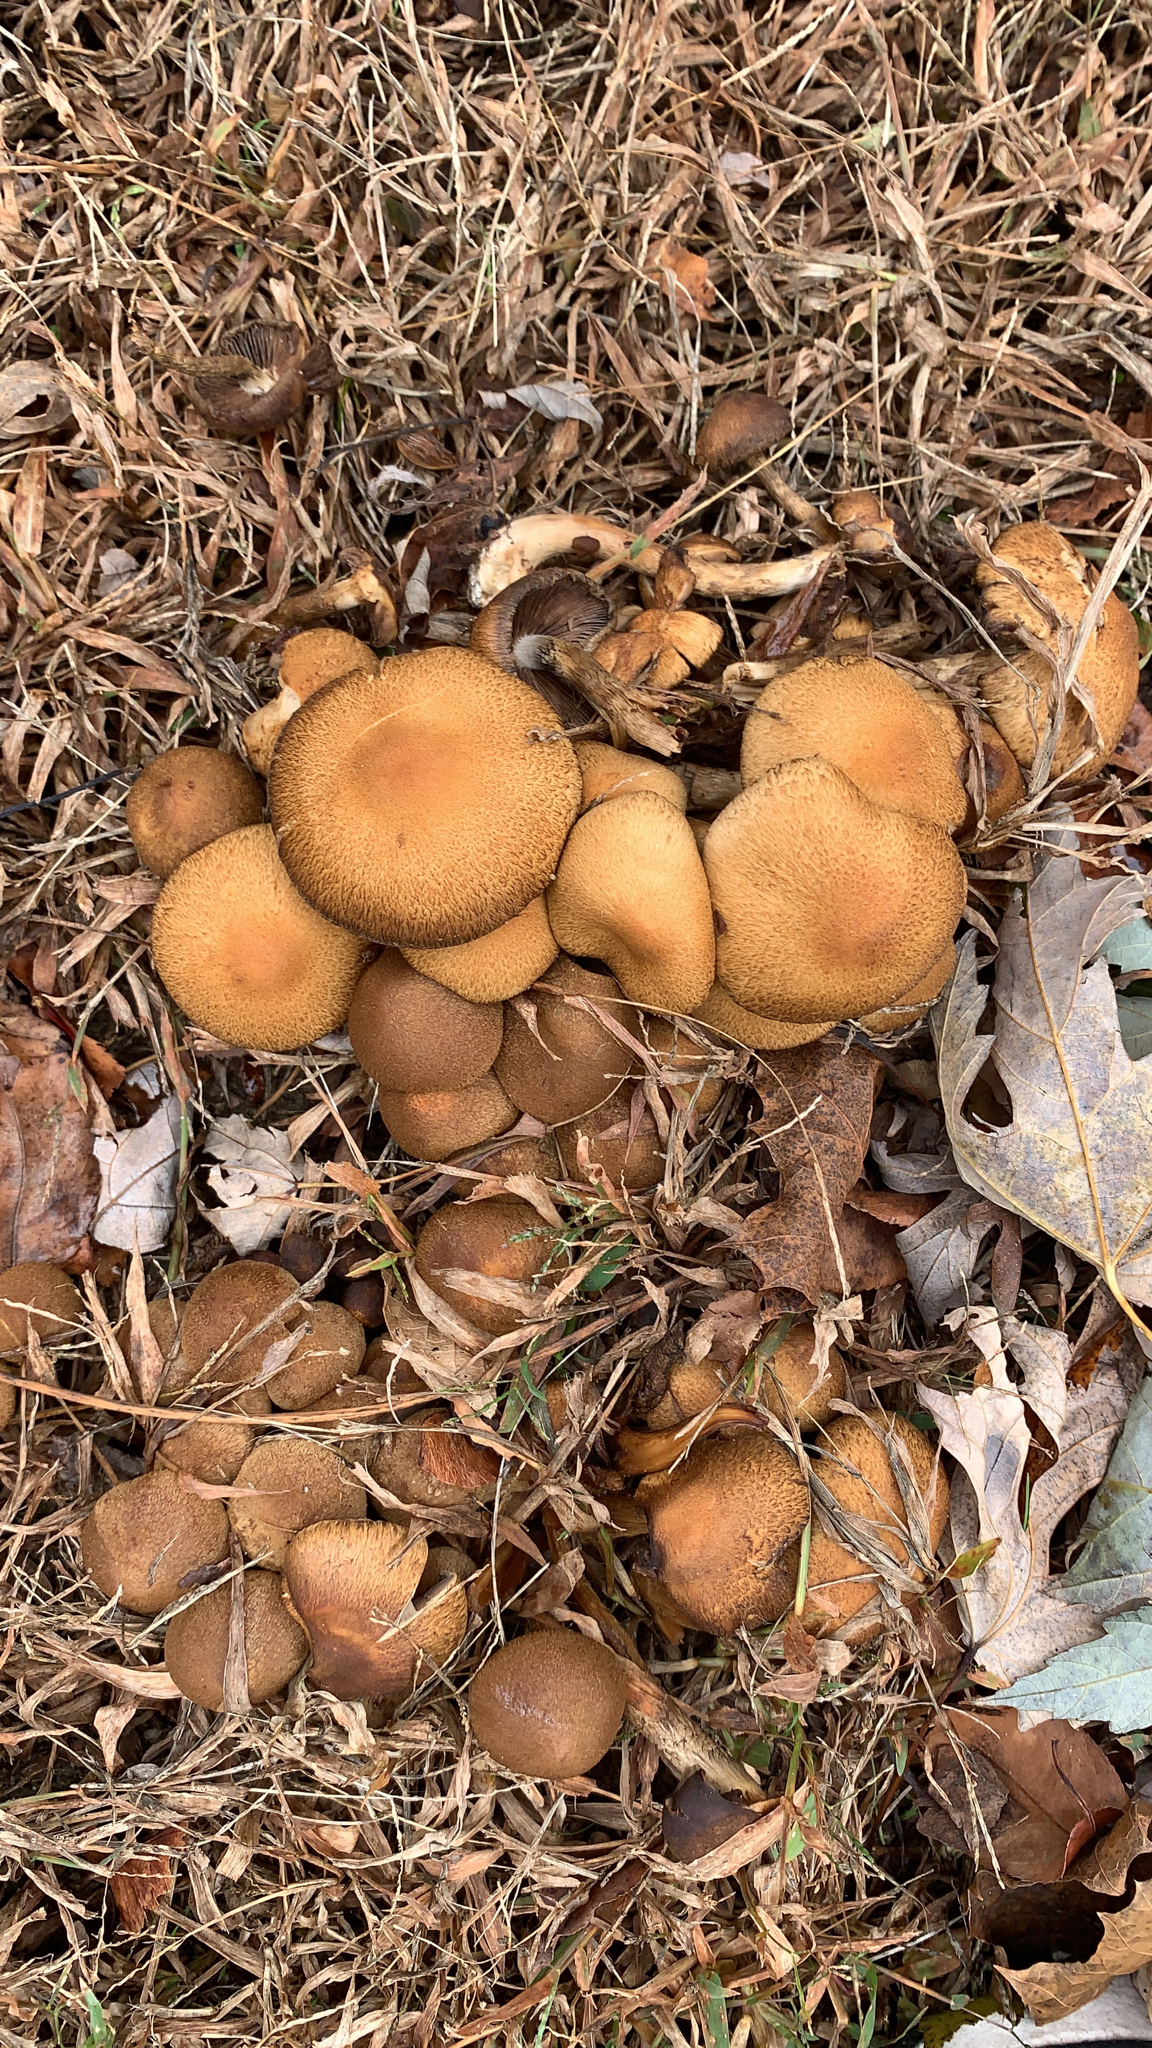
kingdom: Fungi
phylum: Basidiomycota
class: Agaricomycetes
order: Agaricales
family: Psathyrellaceae
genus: Lacrymaria
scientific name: Lacrymaria lacrymabunda
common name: Weeping widow
